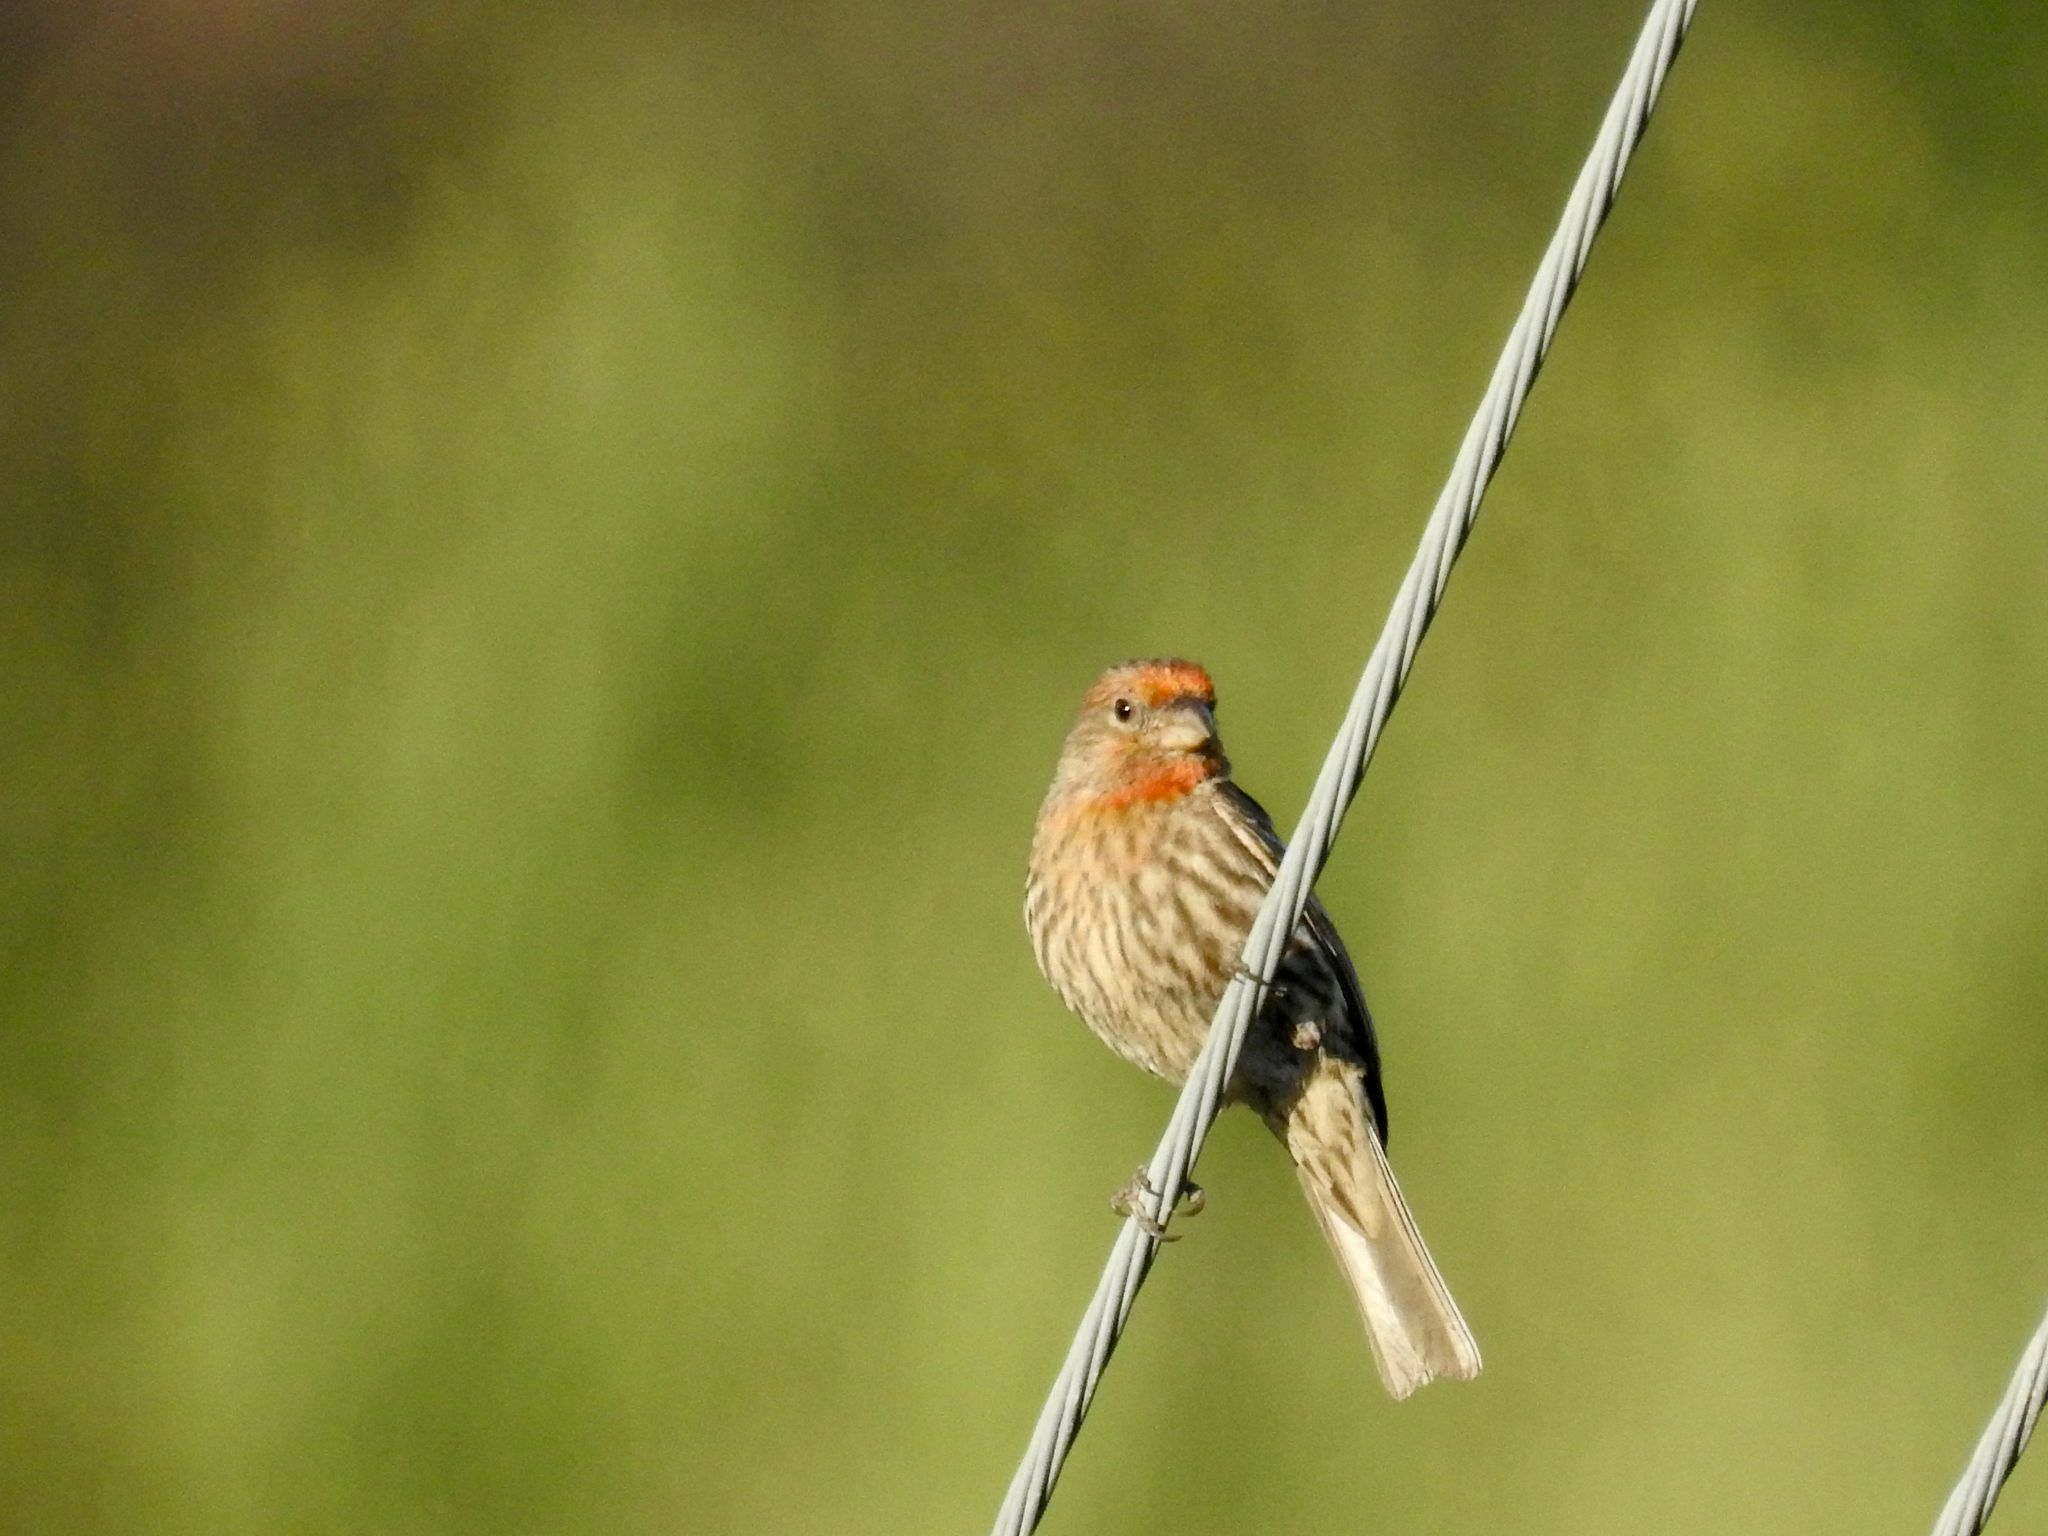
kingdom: Animalia
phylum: Chordata
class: Aves
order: Passeriformes
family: Fringillidae
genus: Haemorhous
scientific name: Haemorhous mexicanus
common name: House finch
